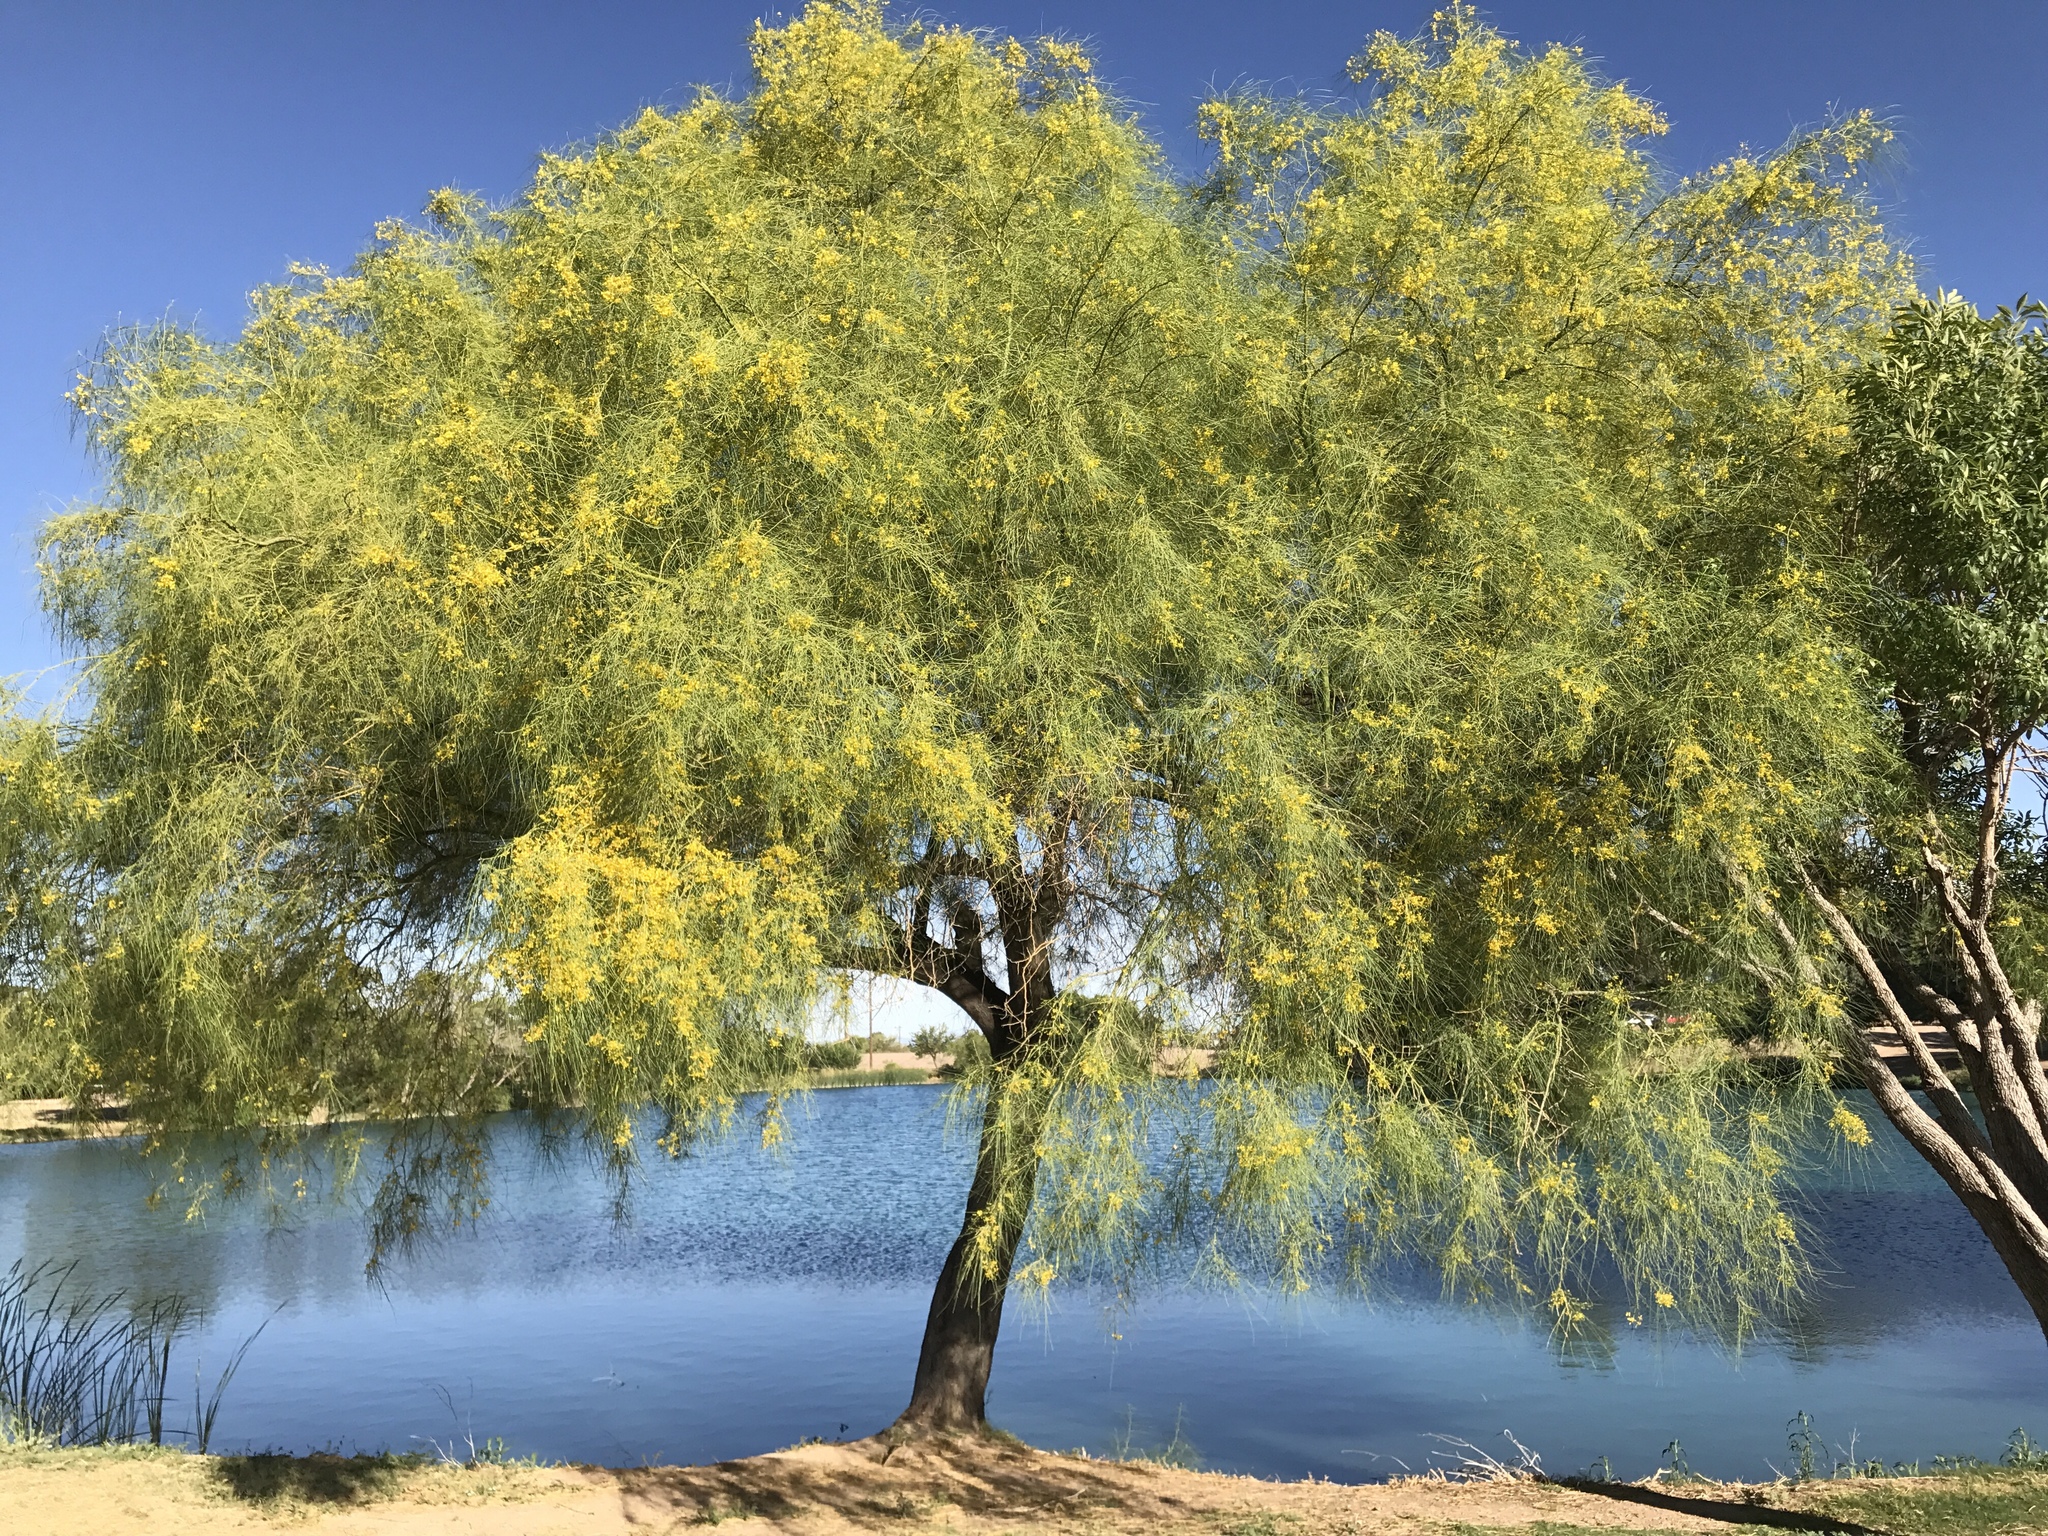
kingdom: Plantae
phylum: Tracheophyta
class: Magnoliopsida
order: Fabales
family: Fabaceae
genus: Parkinsonia
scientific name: Parkinsonia aculeata
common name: Jerusalem thorn
